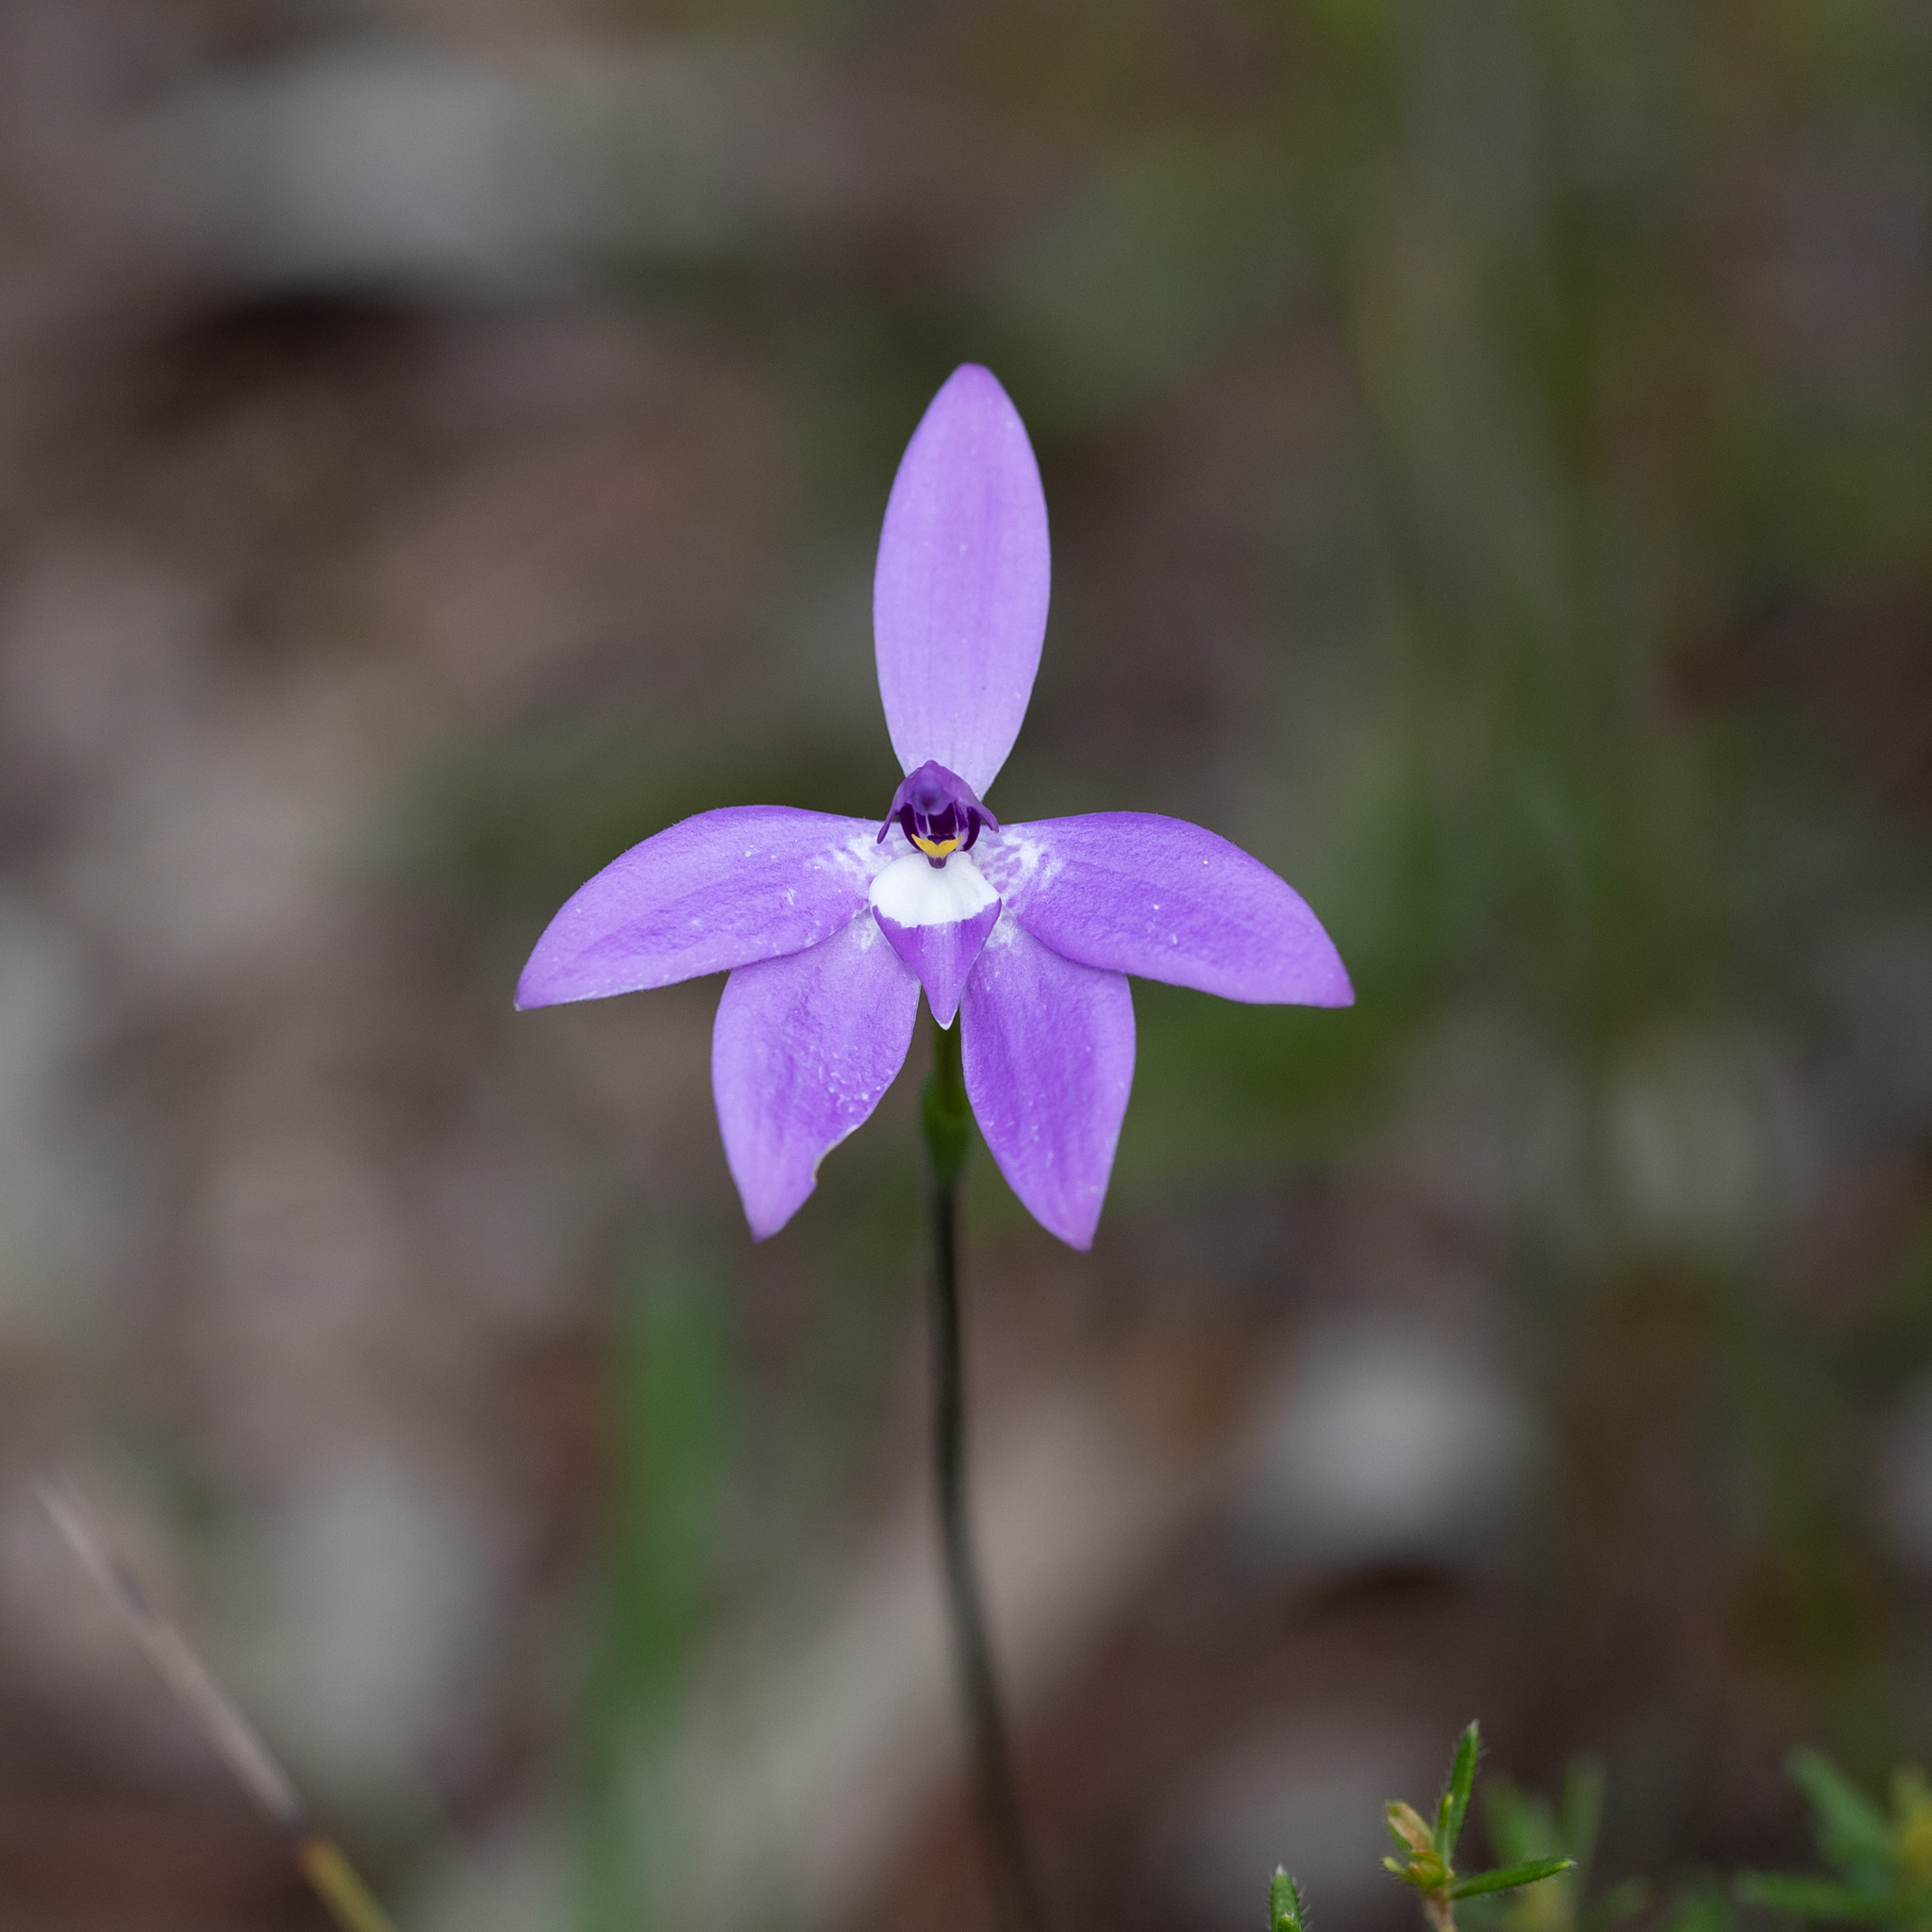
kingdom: Plantae
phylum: Tracheophyta
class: Liliopsida
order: Asparagales
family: Orchidaceae
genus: Caladenia
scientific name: Caladenia major
